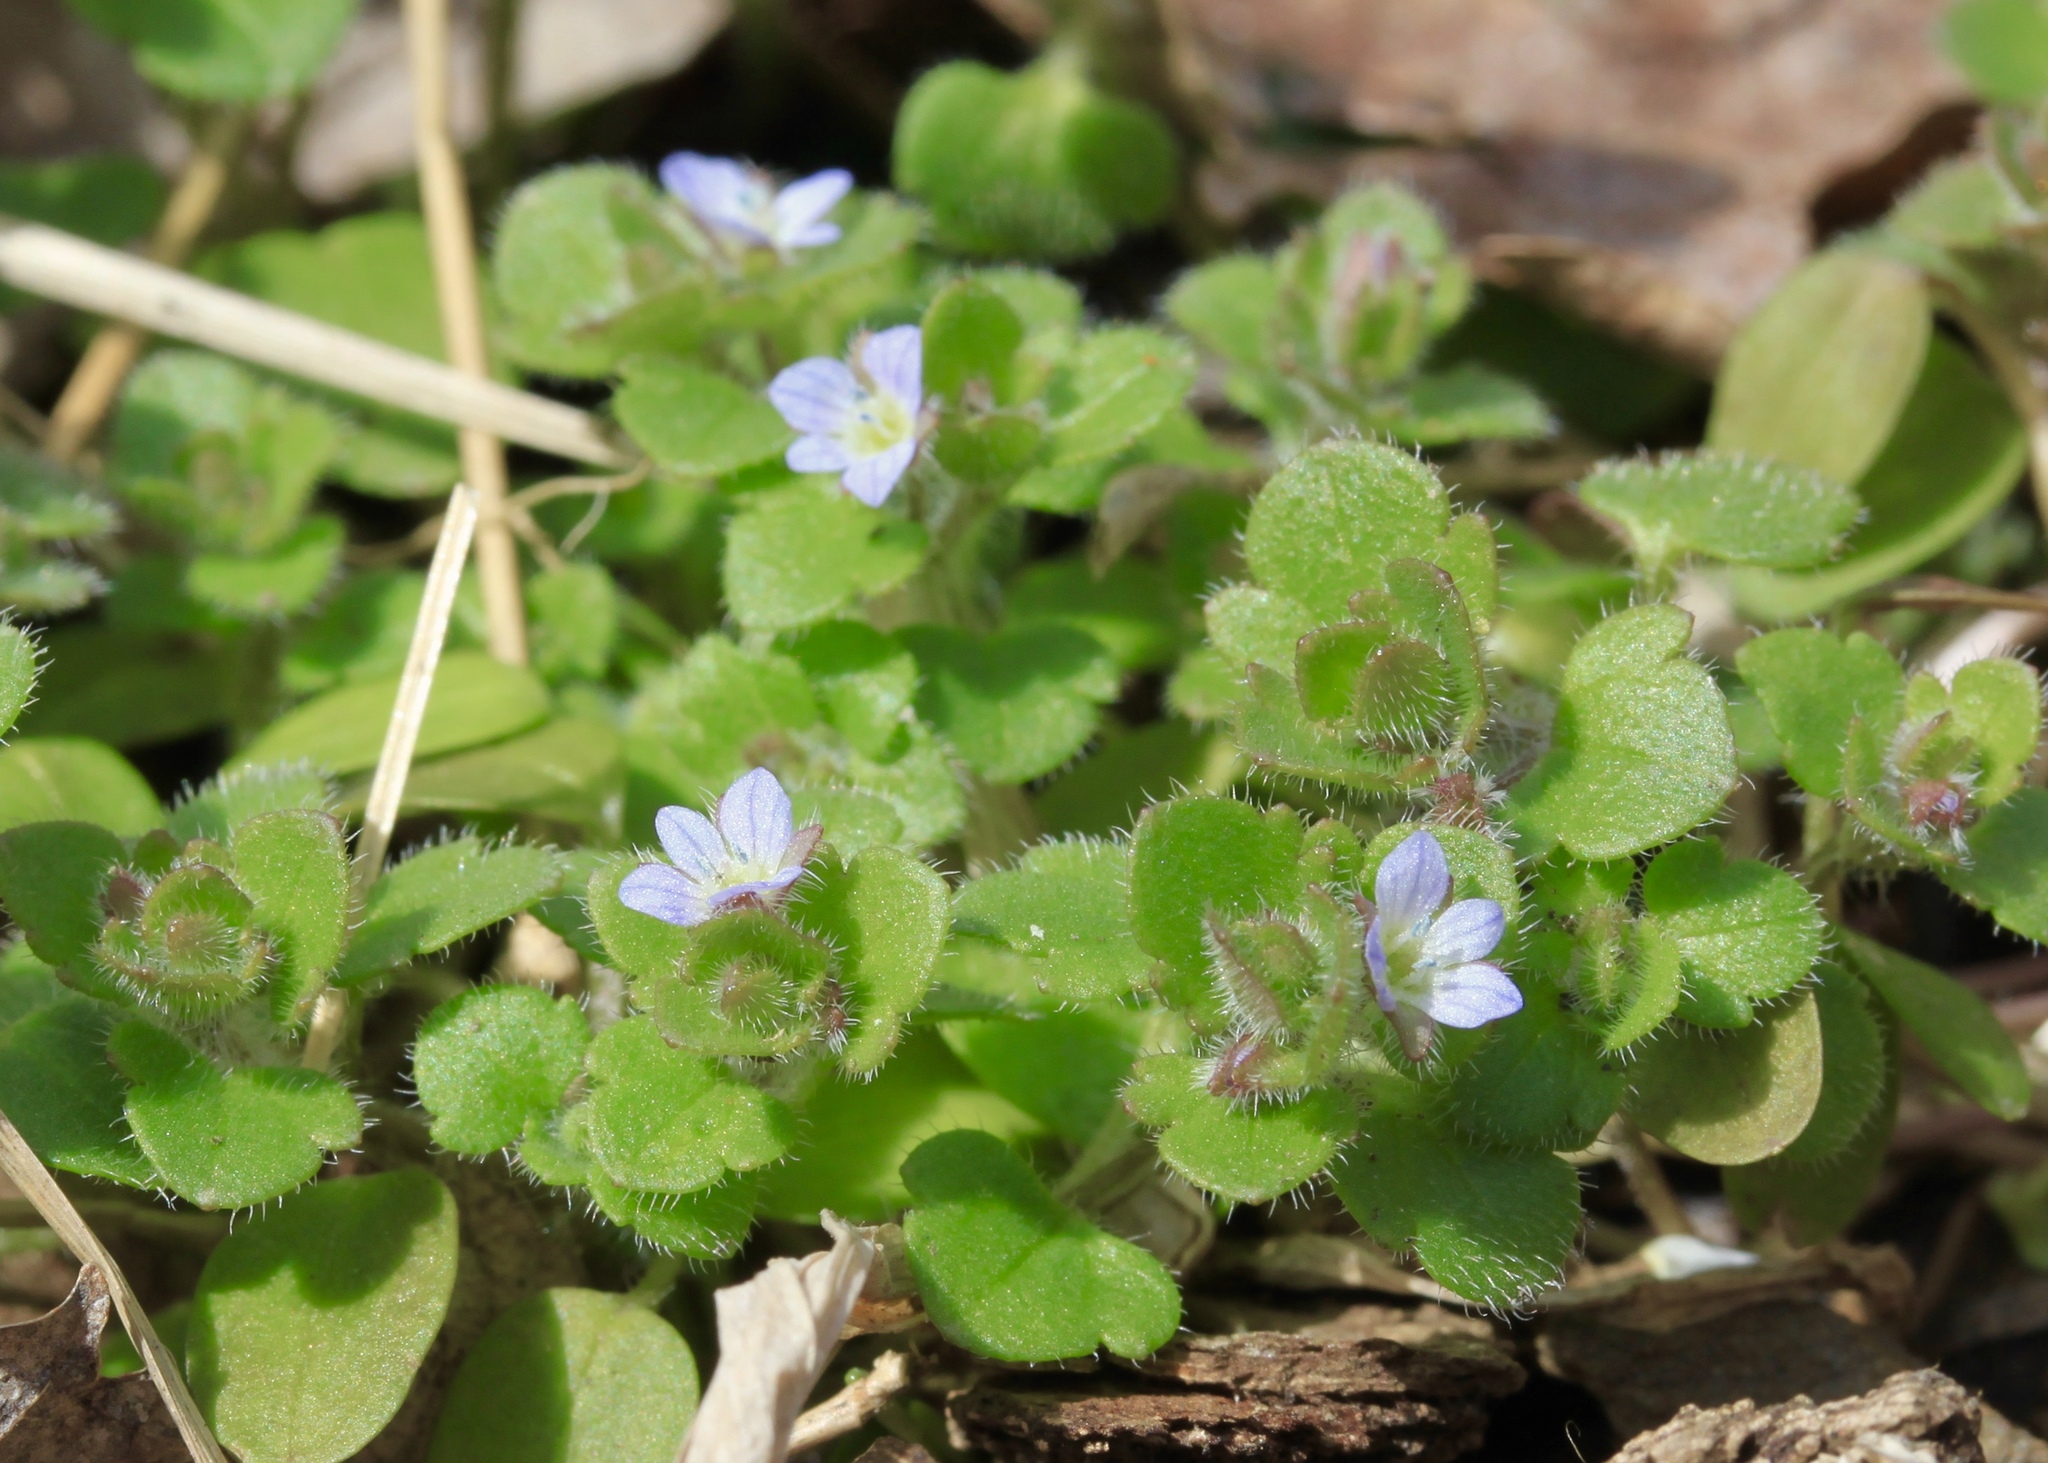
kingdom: Plantae
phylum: Tracheophyta
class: Magnoliopsida
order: Lamiales
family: Plantaginaceae
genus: Veronica
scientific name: Veronica hederifolia
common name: Ivy-leaved speedwell
